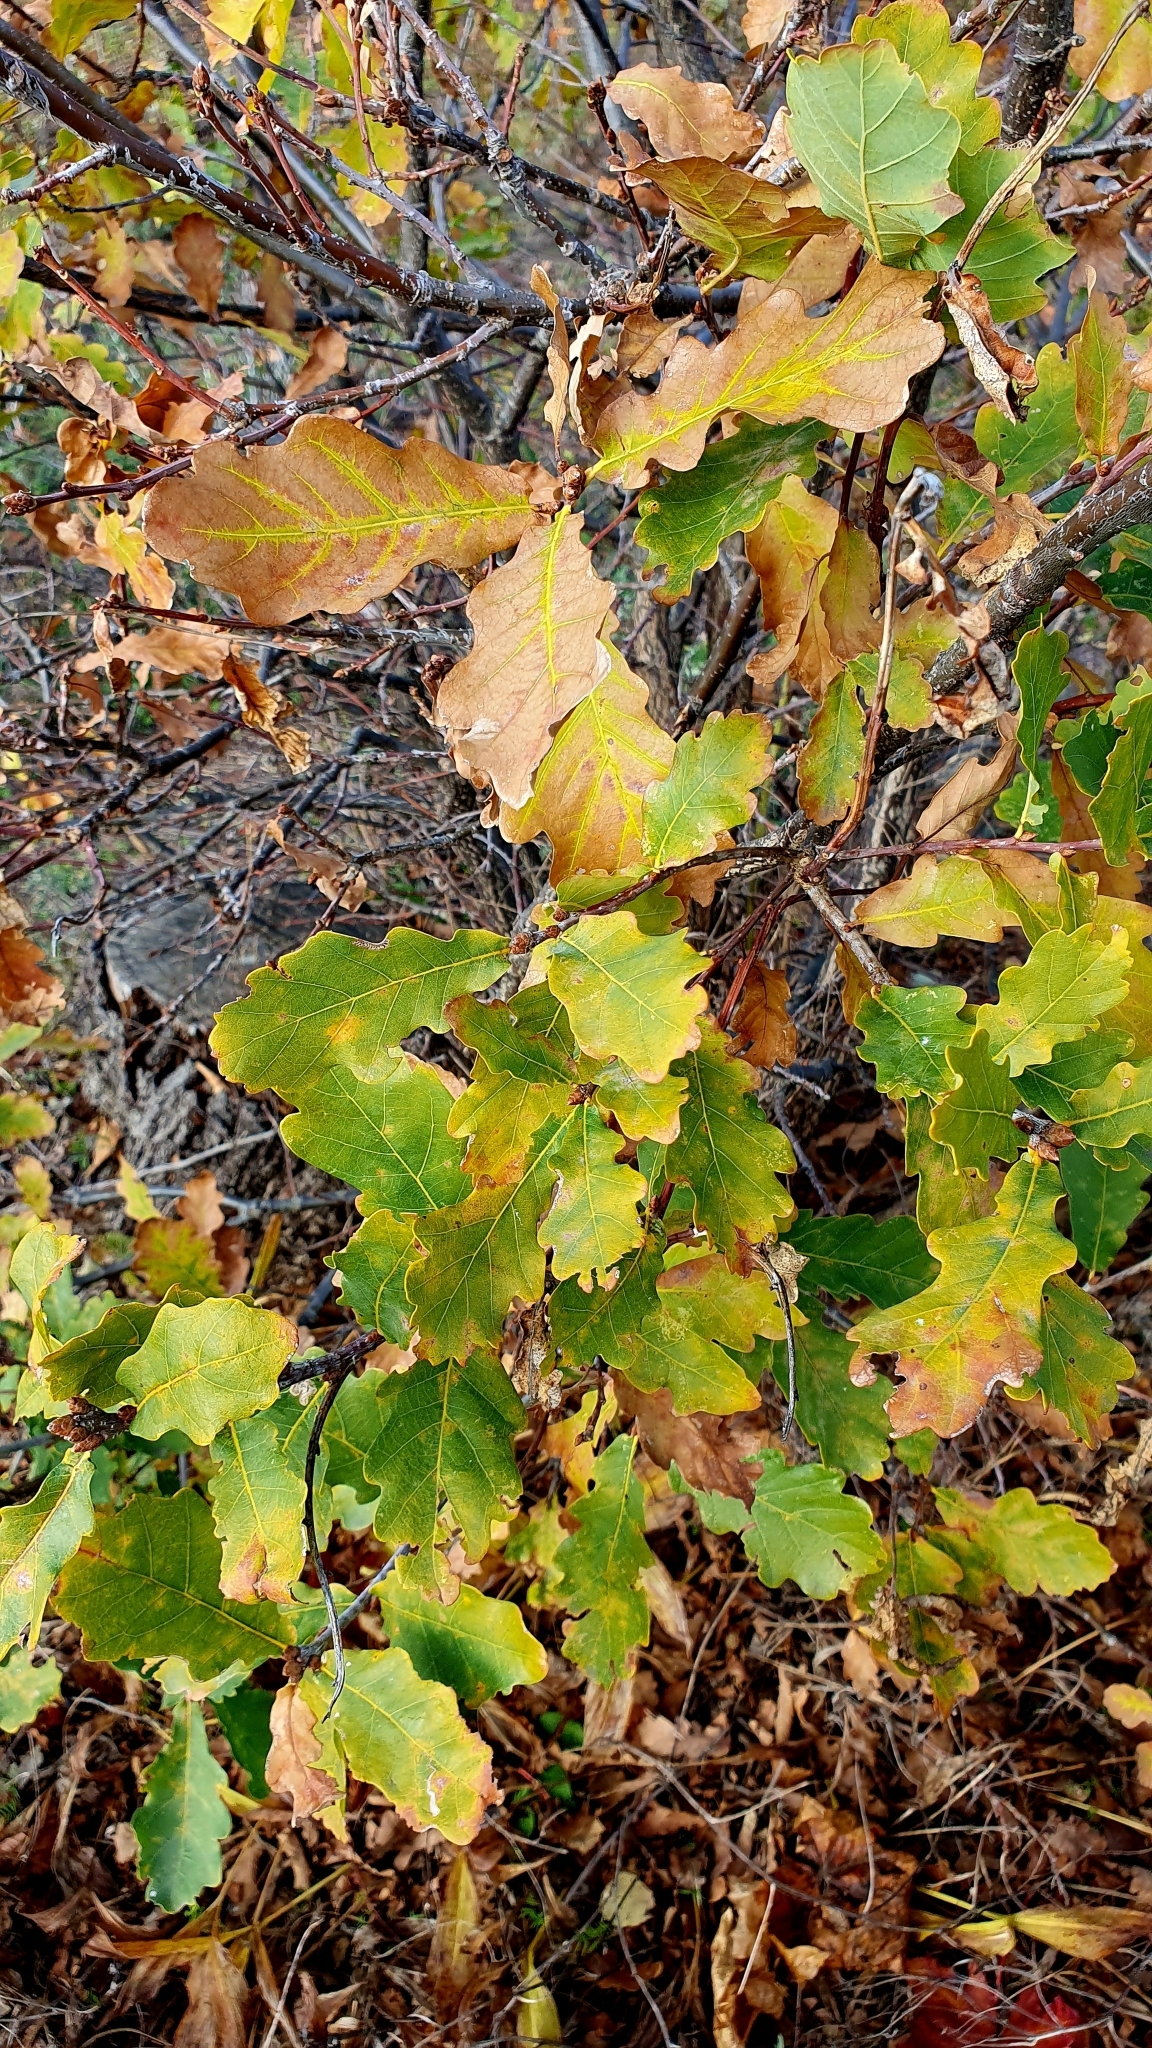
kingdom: Plantae
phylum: Tracheophyta
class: Magnoliopsida
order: Fagales
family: Fagaceae
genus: Quercus
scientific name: Quercus robur
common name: Pedunculate oak
